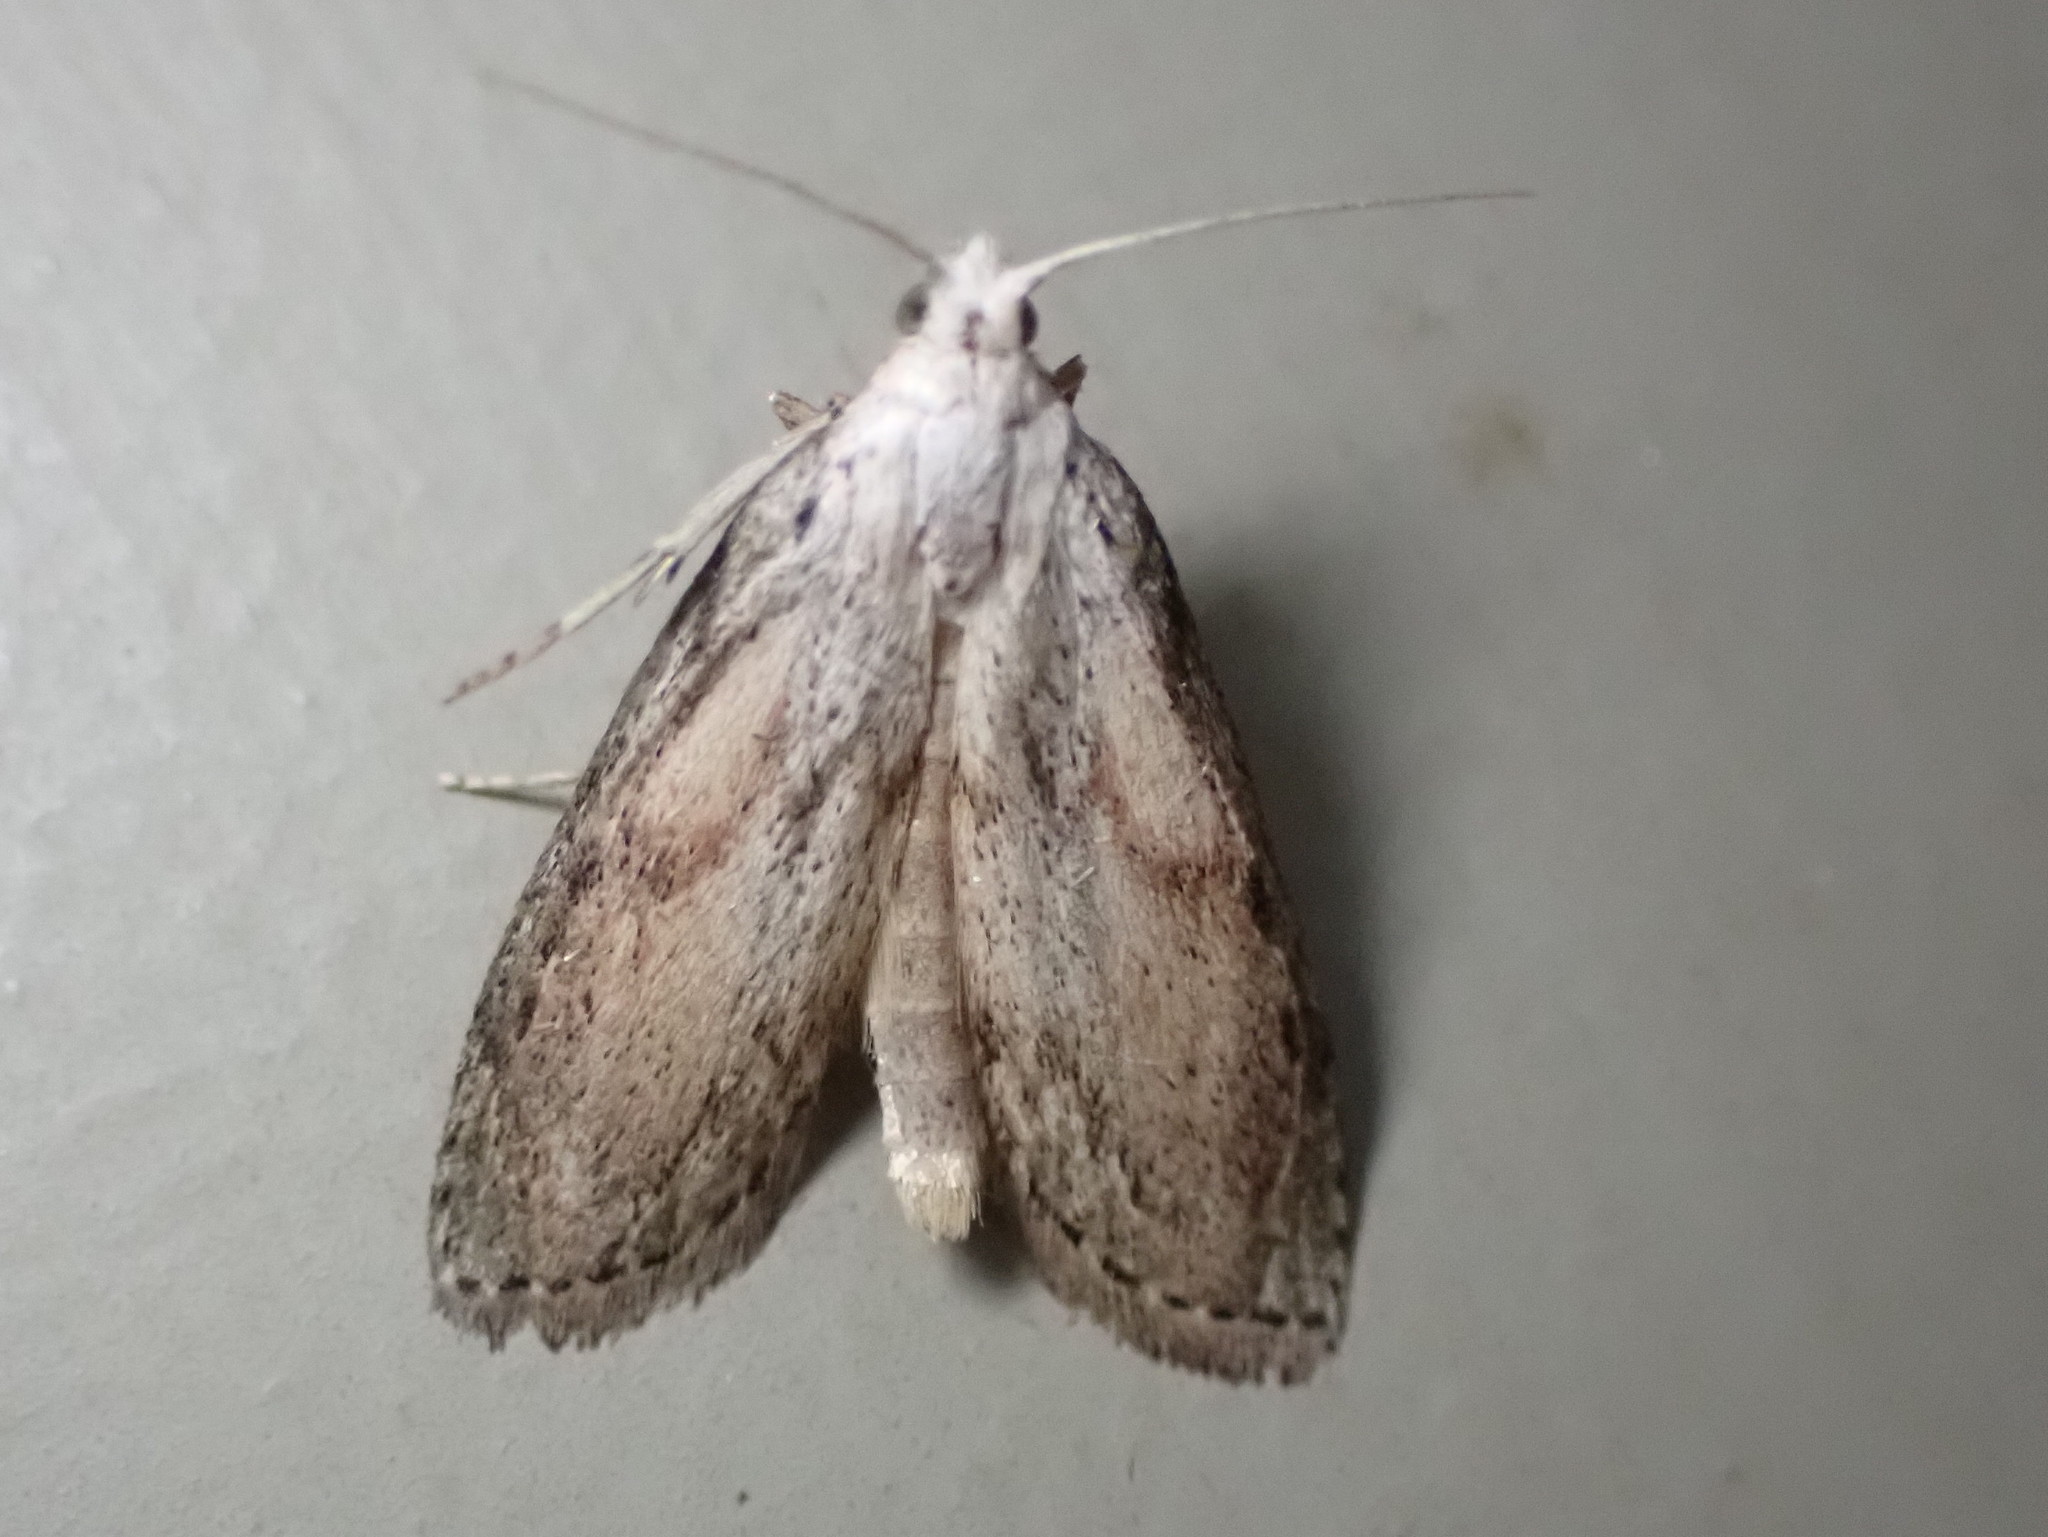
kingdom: Animalia
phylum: Arthropoda
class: Insecta
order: Lepidoptera
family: Pyralidae
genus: Aphomia
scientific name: Aphomia sociella
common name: Bee moth
